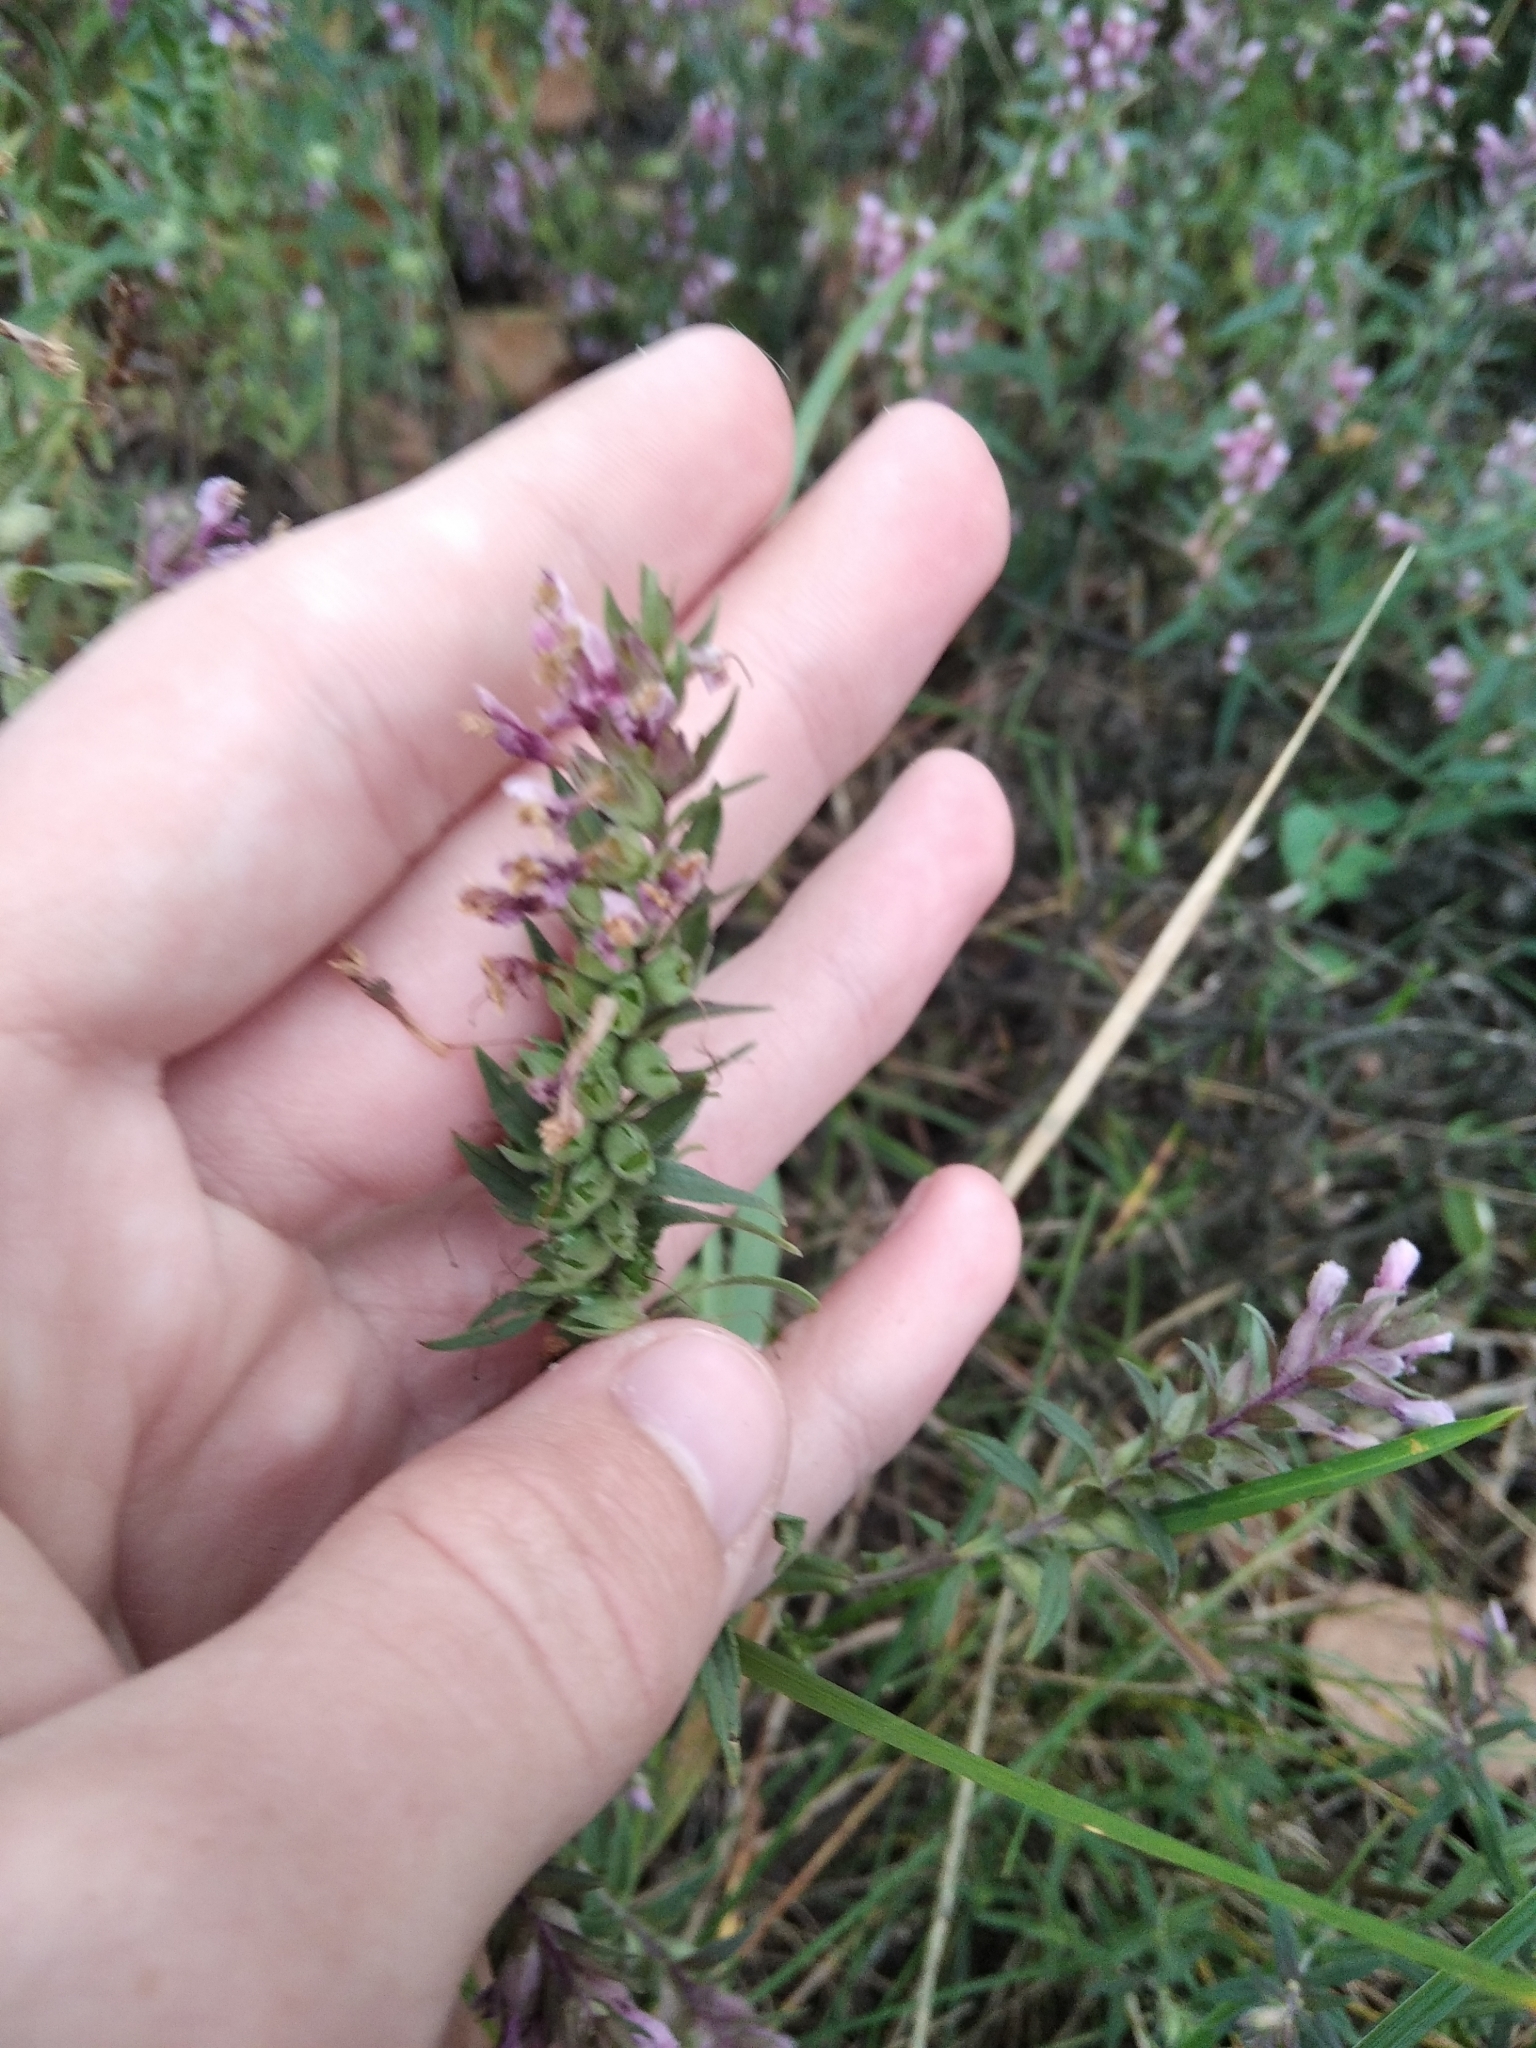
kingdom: Plantae
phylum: Tracheophyta
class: Magnoliopsida
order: Lamiales
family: Orobanchaceae
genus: Odontites
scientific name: Odontites vulgaris
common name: Broomrape
